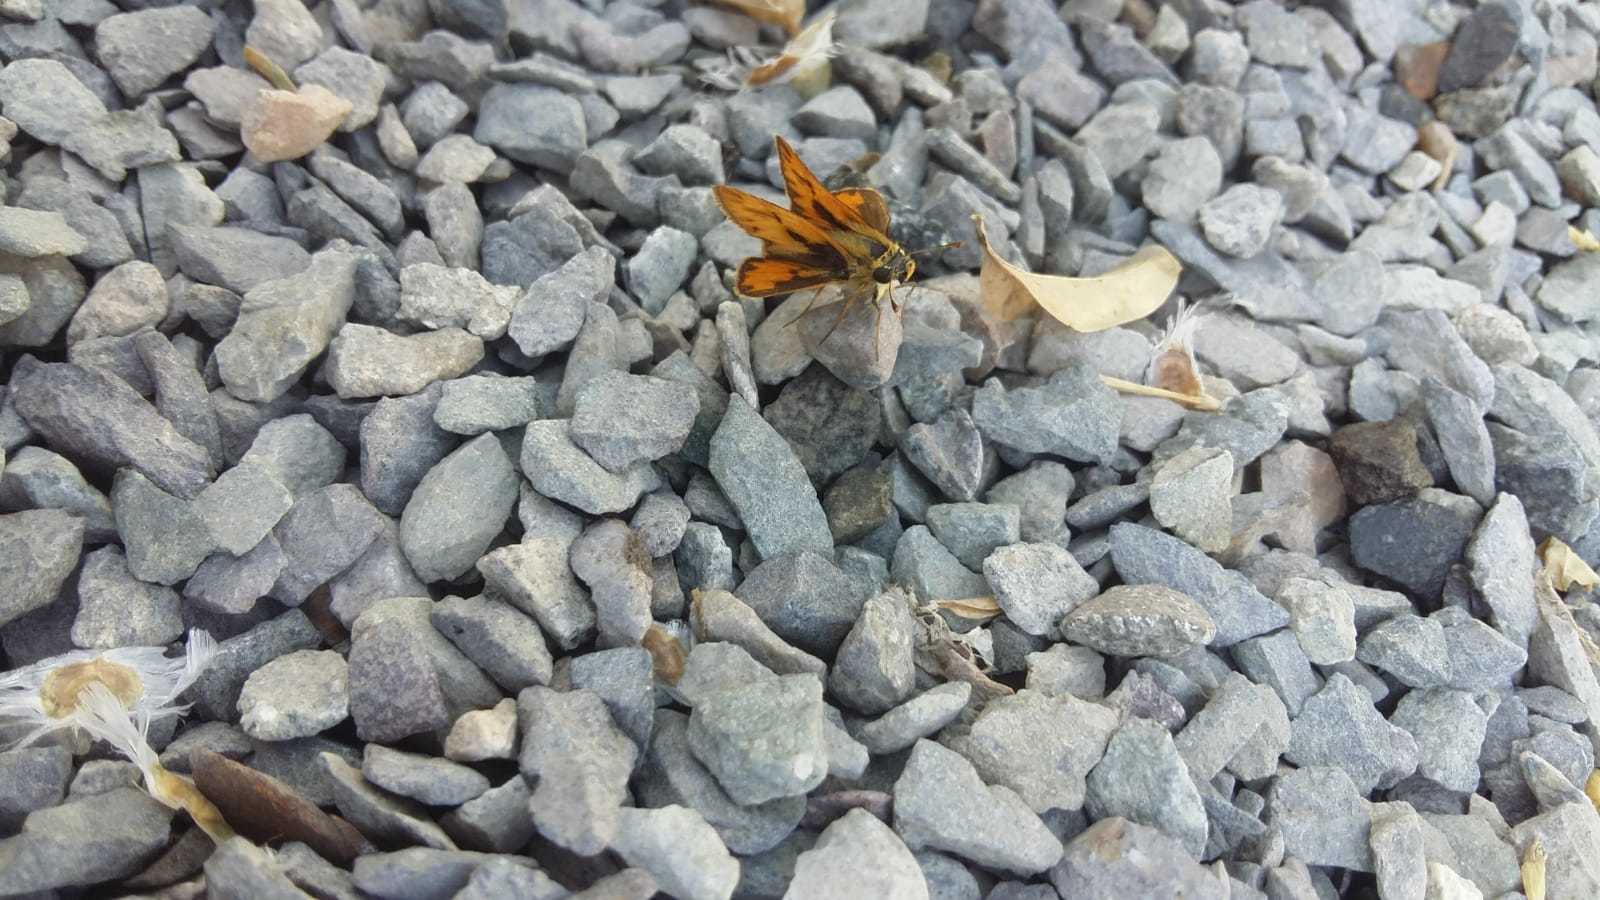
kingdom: Animalia
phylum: Arthropoda
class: Insecta
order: Lepidoptera
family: Hesperiidae
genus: Hylephila
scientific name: Hylephila phyleus
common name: Fiery skipper
